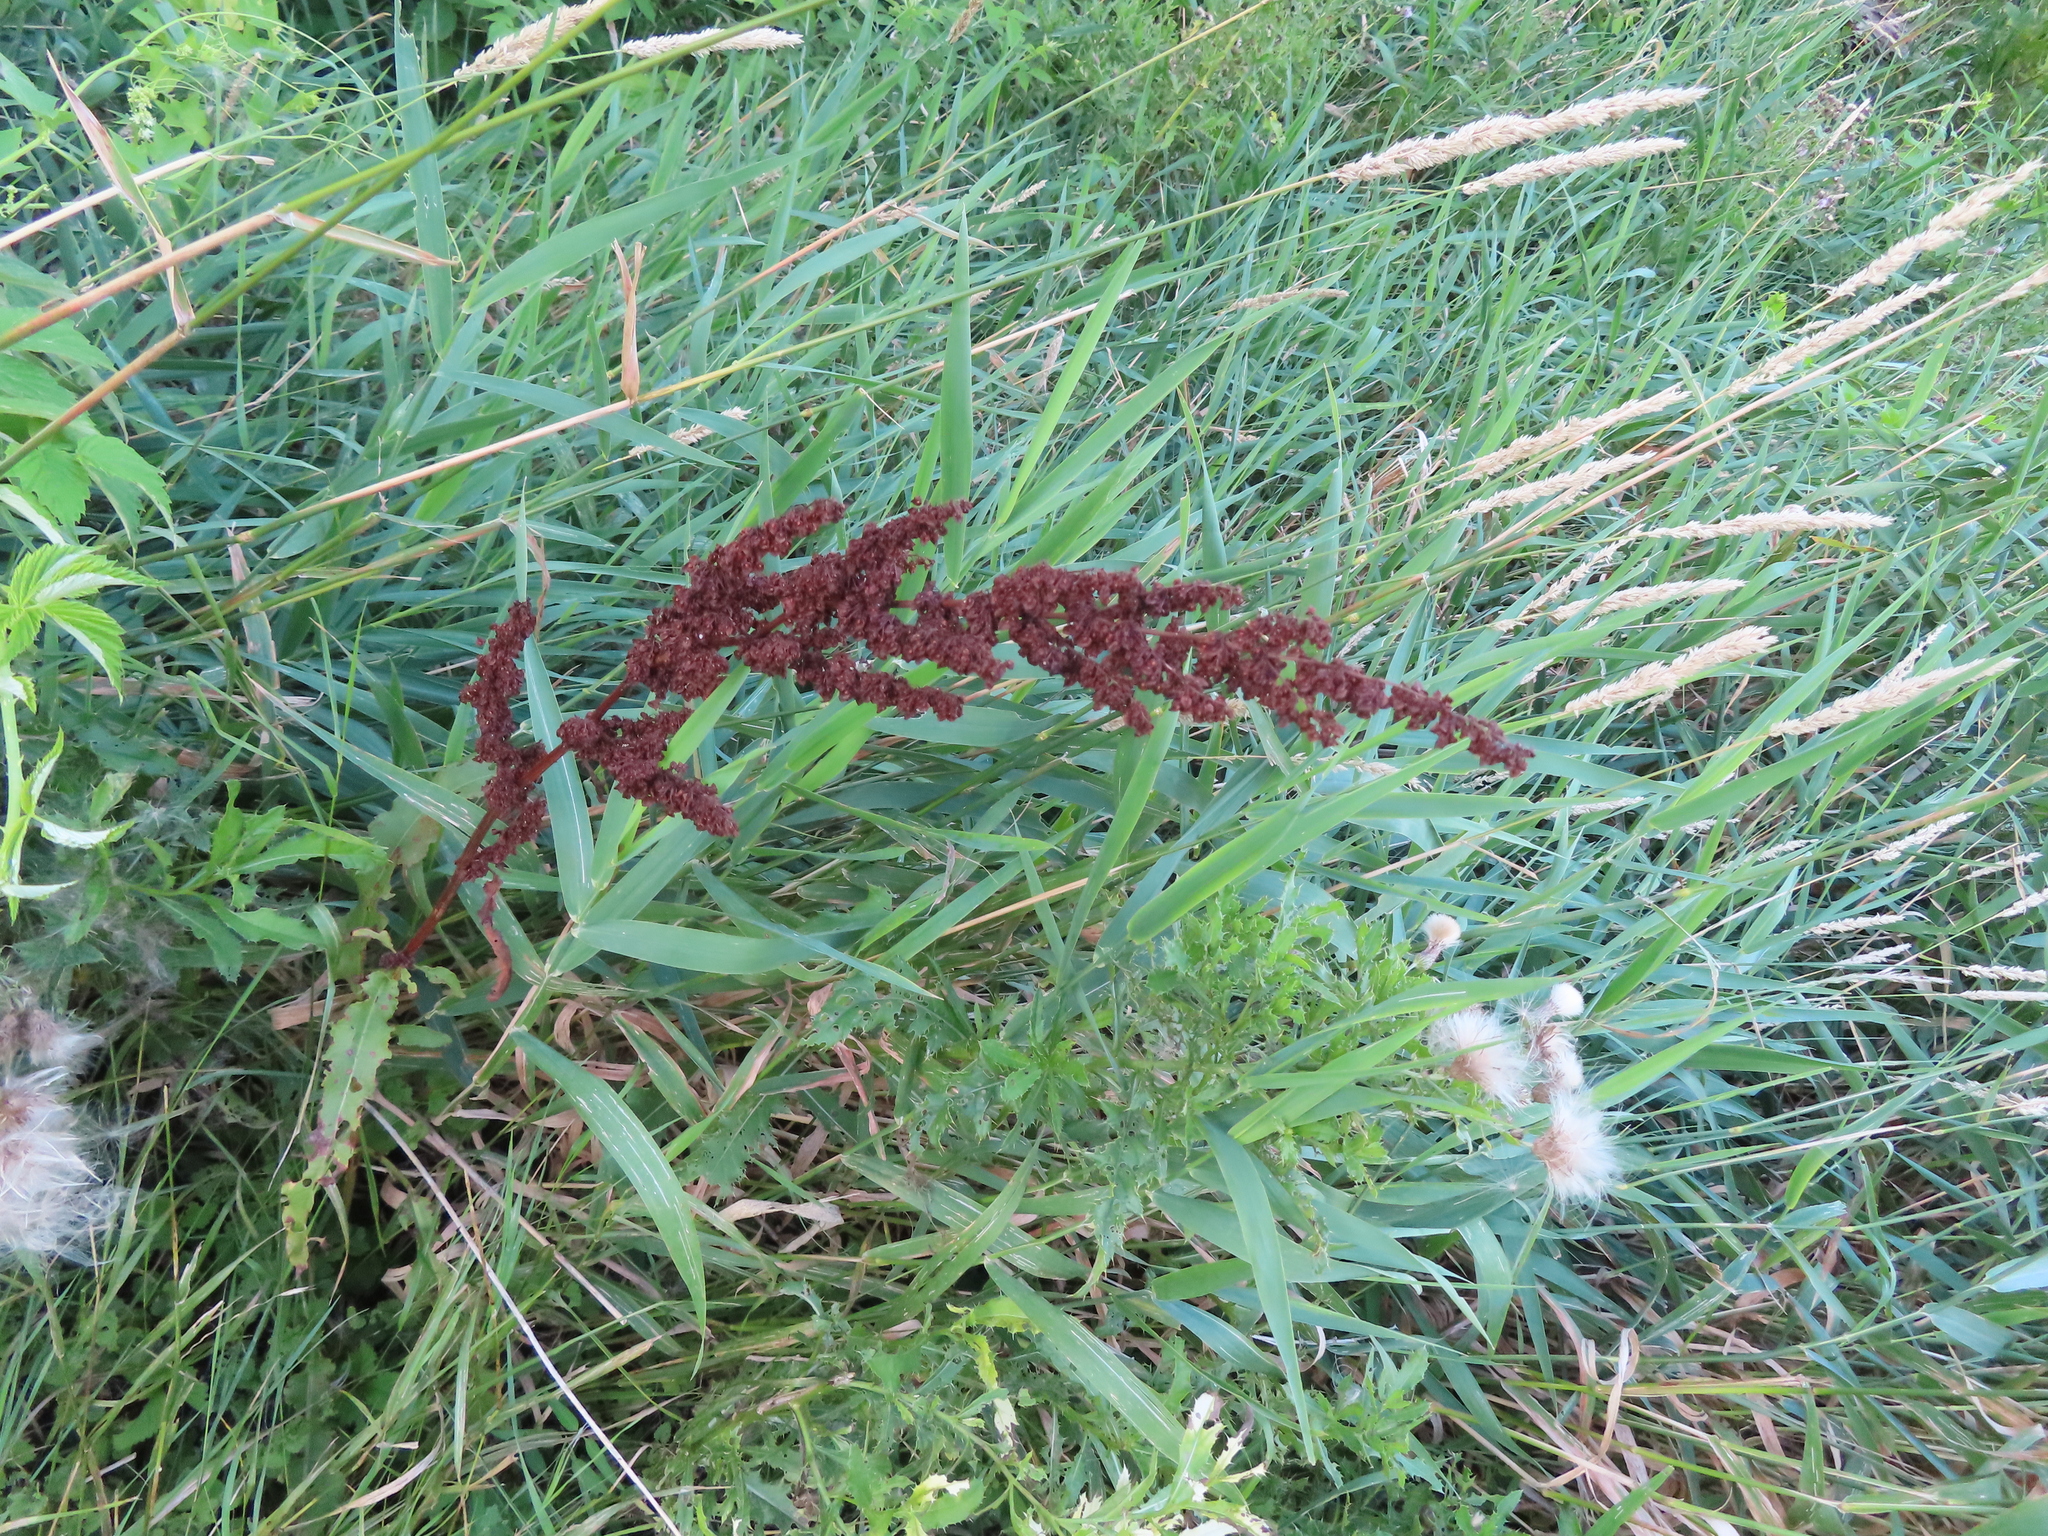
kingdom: Plantae
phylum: Tracheophyta
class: Magnoliopsida
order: Caryophyllales
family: Polygonaceae
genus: Rumex
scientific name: Rumex crispus
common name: Curled dock
